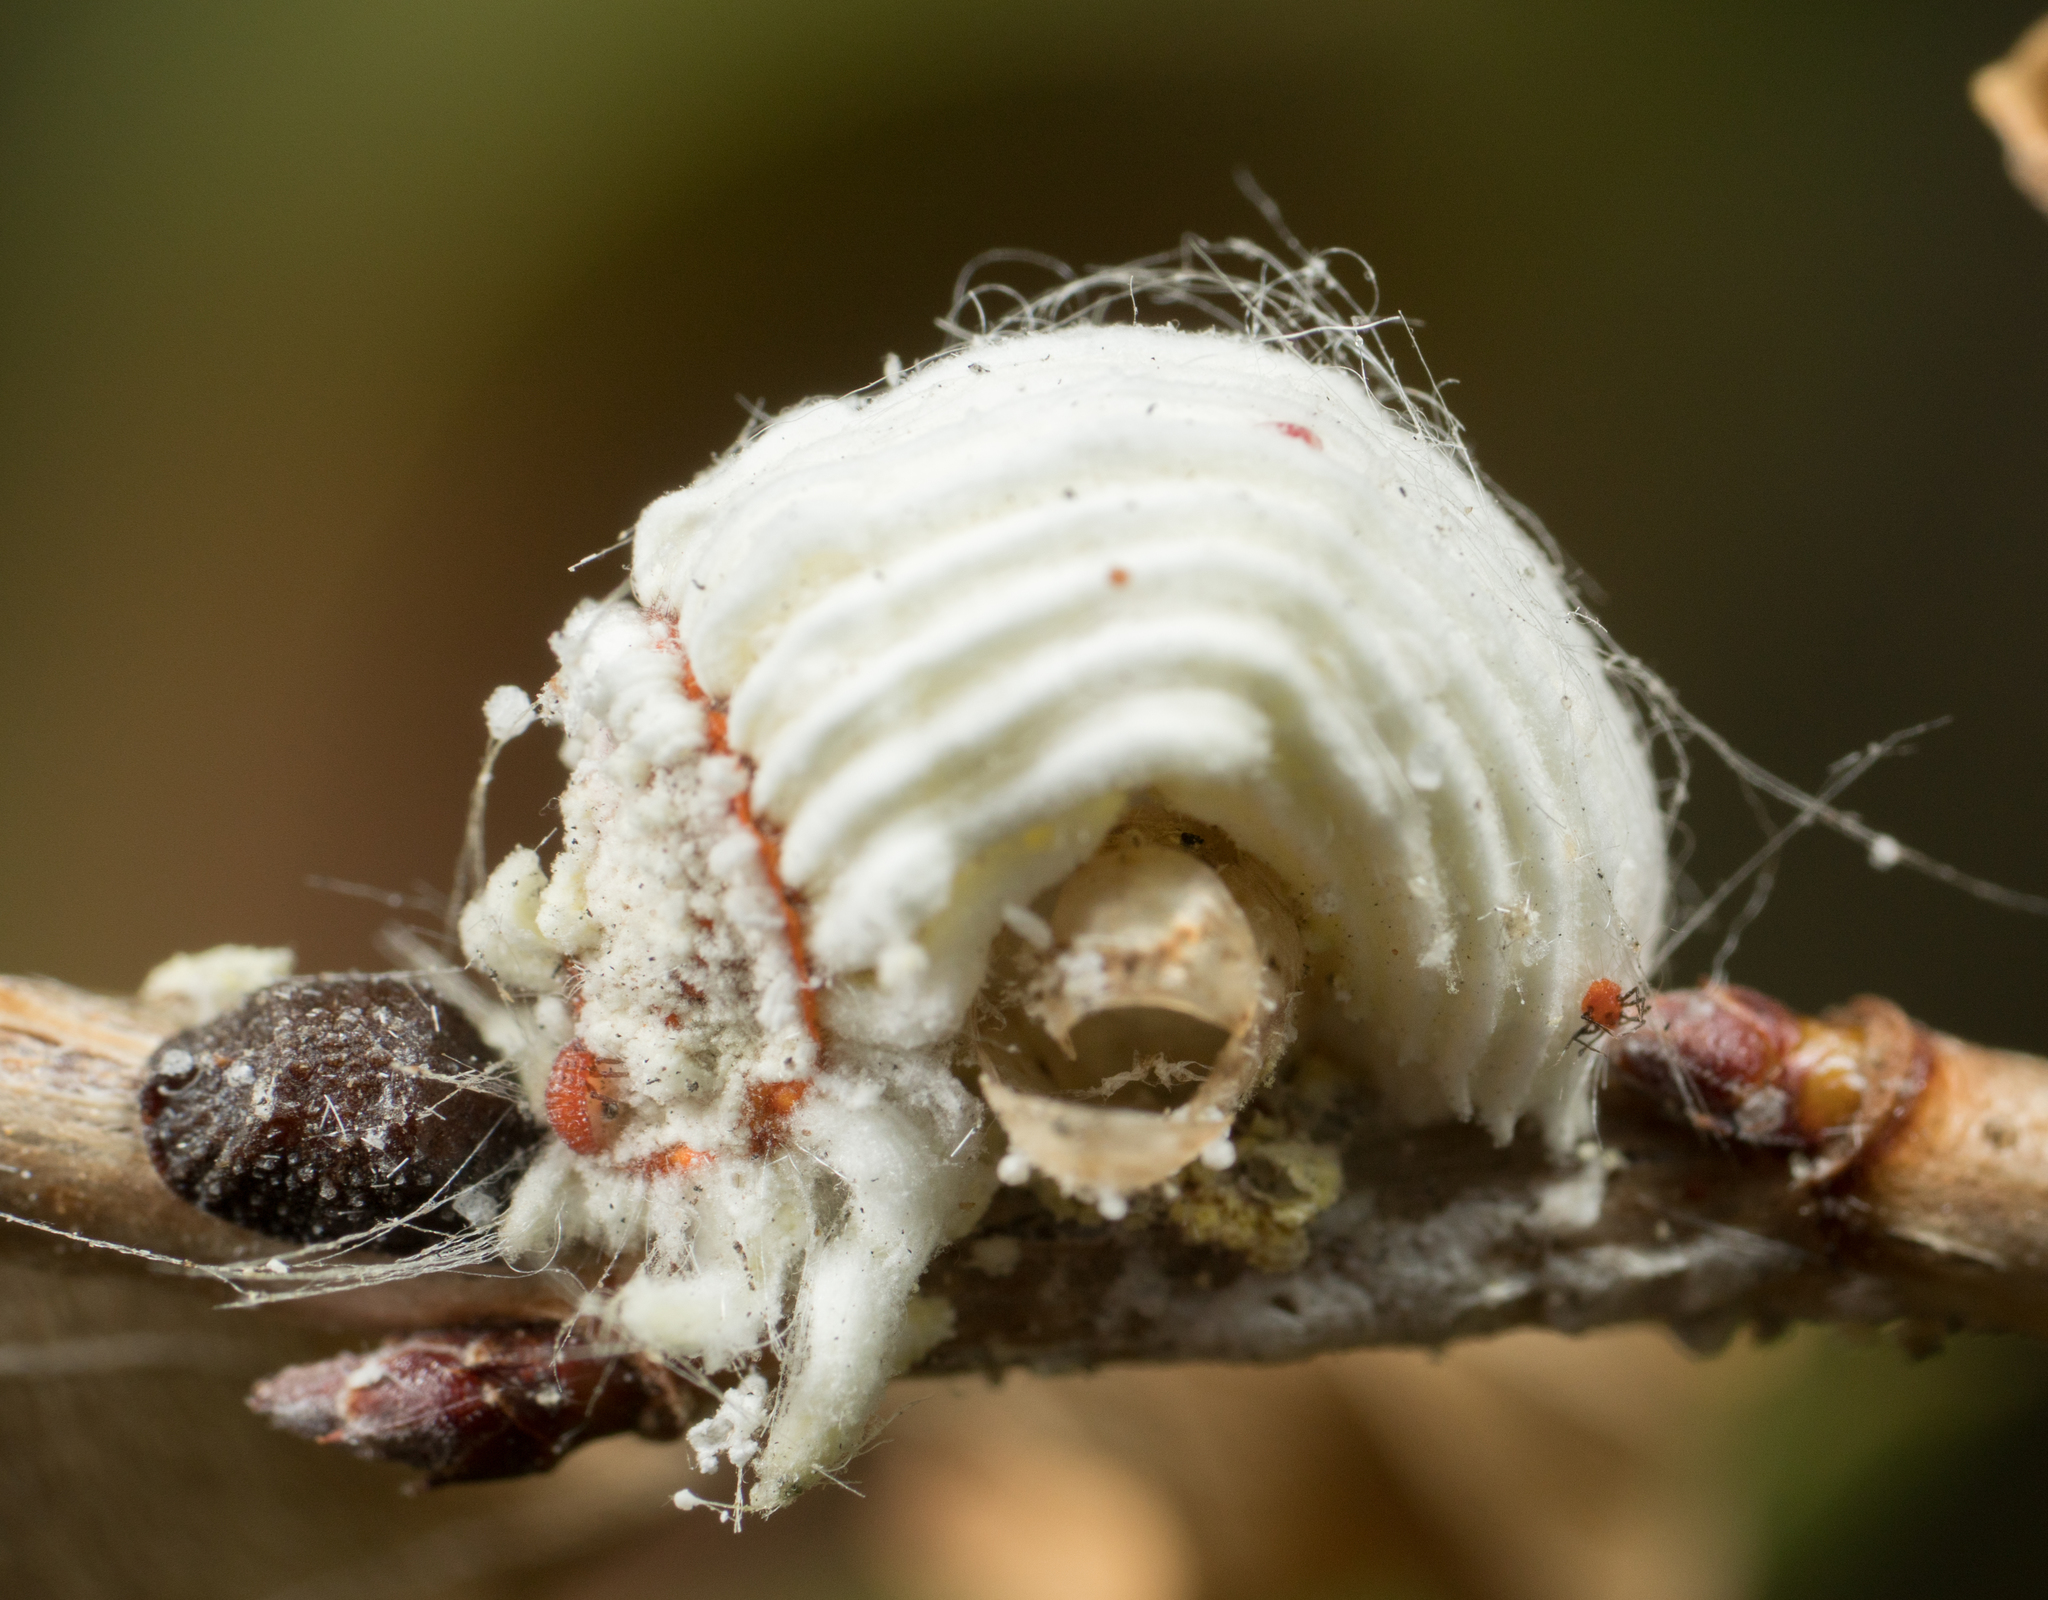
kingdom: Animalia
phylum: Arthropoda
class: Insecta
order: Hemiptera
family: Margarodidae
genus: Icerya
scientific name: Icerya purchasi
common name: Cottony cushion scale
